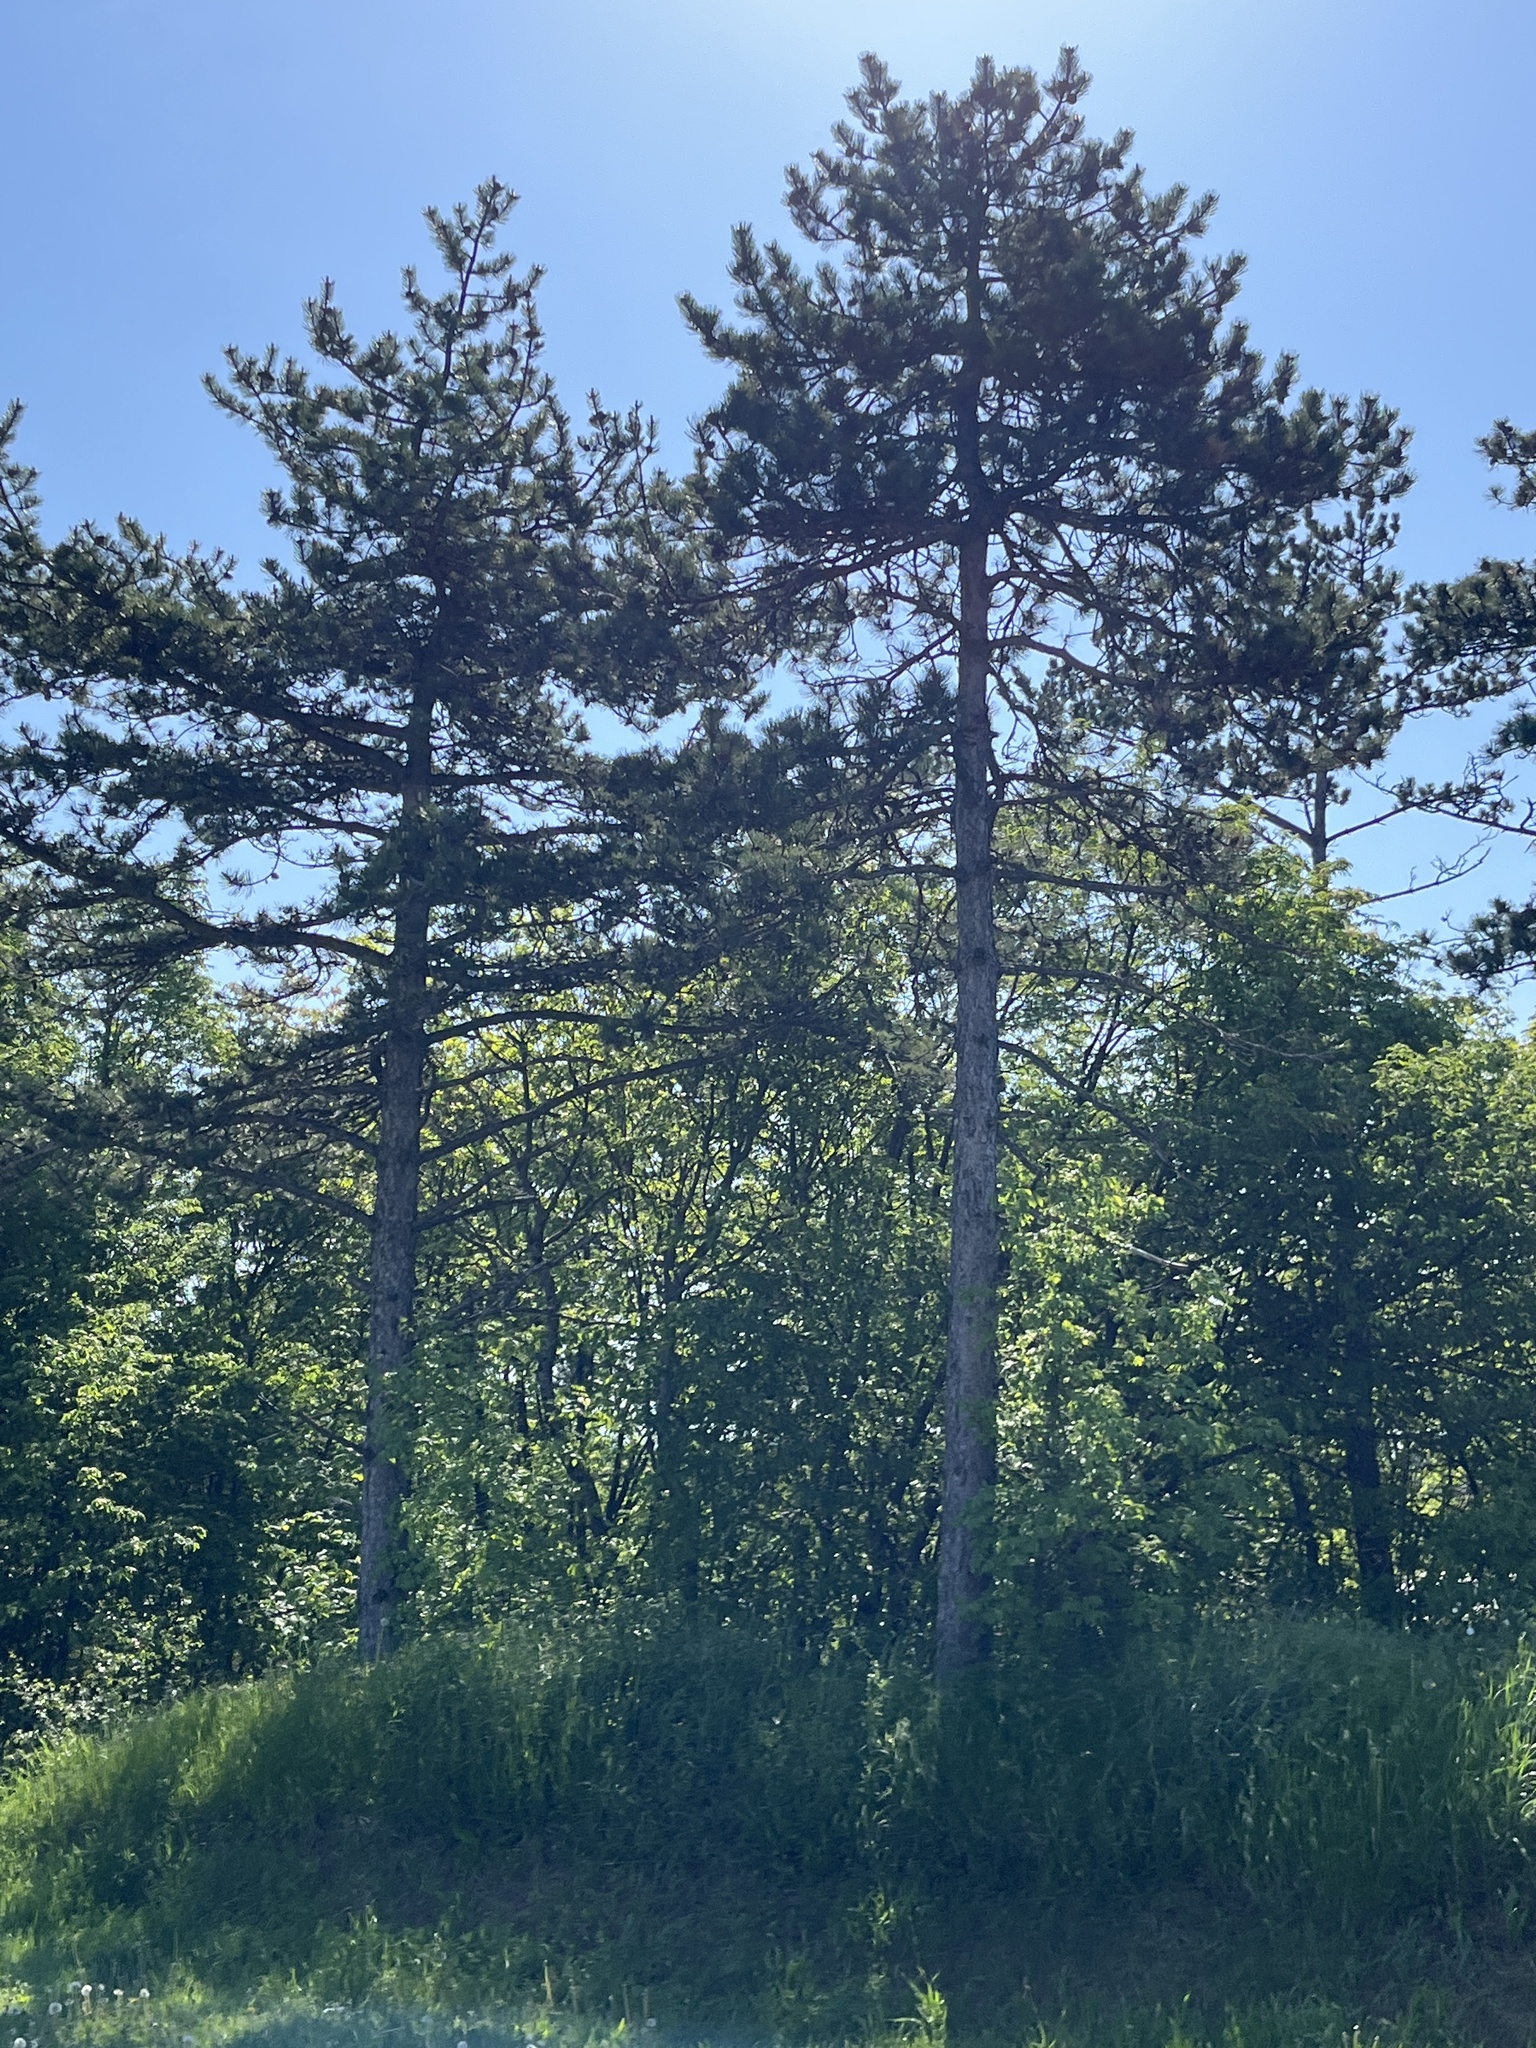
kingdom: Plantae
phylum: Tracheophyta
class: Pinopsida
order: Pinales
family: Pinaceae
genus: Pinus
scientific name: Pinus nigra
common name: Austrian pine
